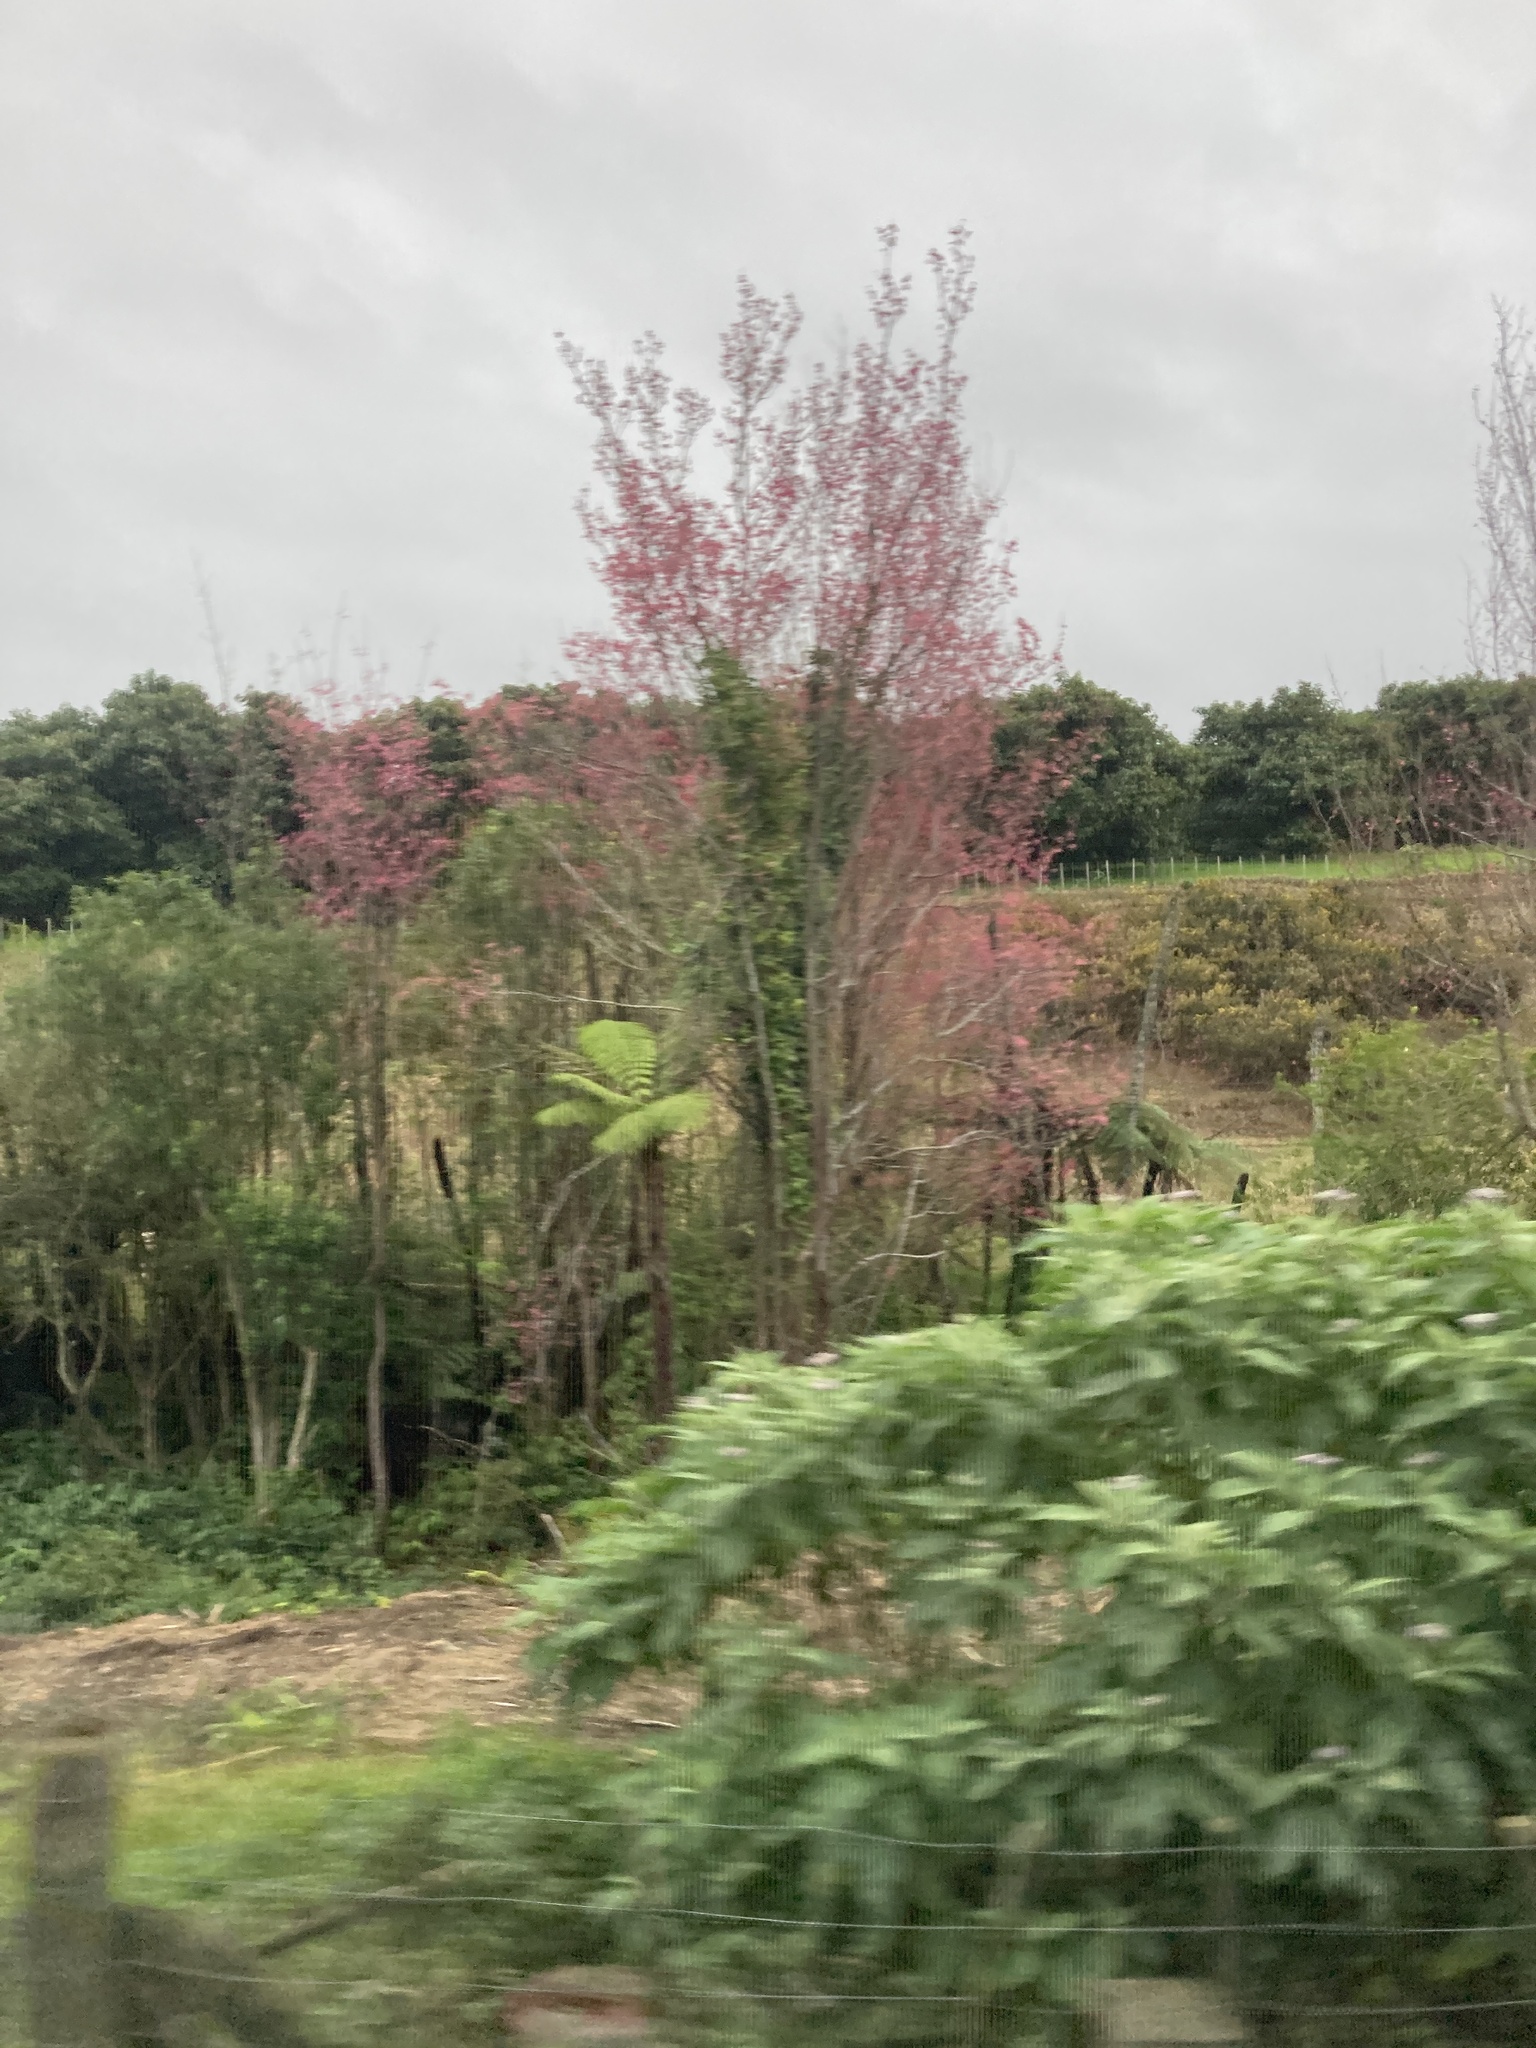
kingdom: Plantae
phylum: Tracheophyta
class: Magnoliopsida
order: Solanales
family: Solanaceae
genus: Solanum
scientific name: Solanum mauritianum
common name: Earleaf nightshade
